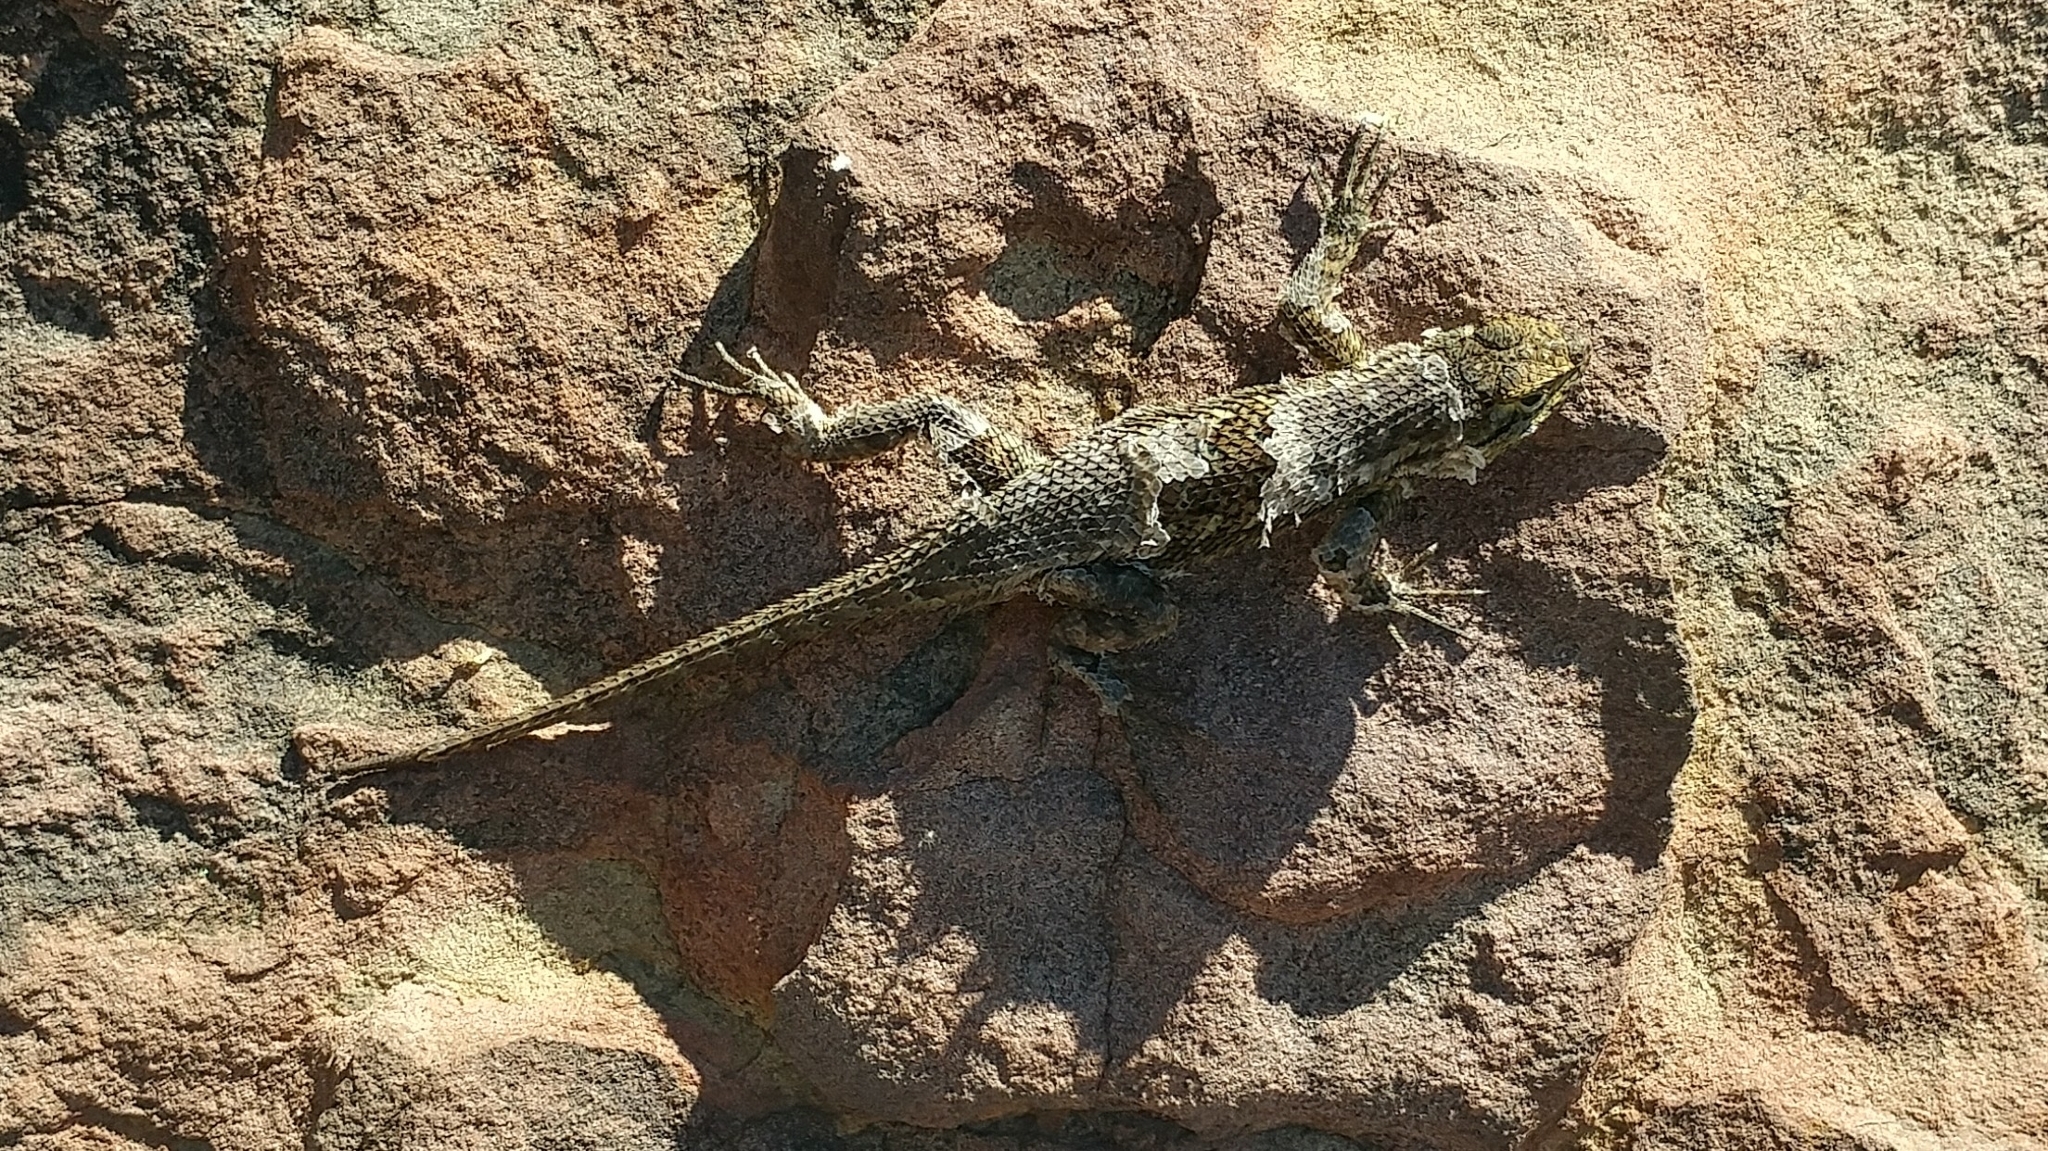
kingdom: Animalia
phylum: Chordata
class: Squamata
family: Phrynosomatidae
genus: Sceloporus
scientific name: Sceloporus occidentalis
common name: Western fence lizard
